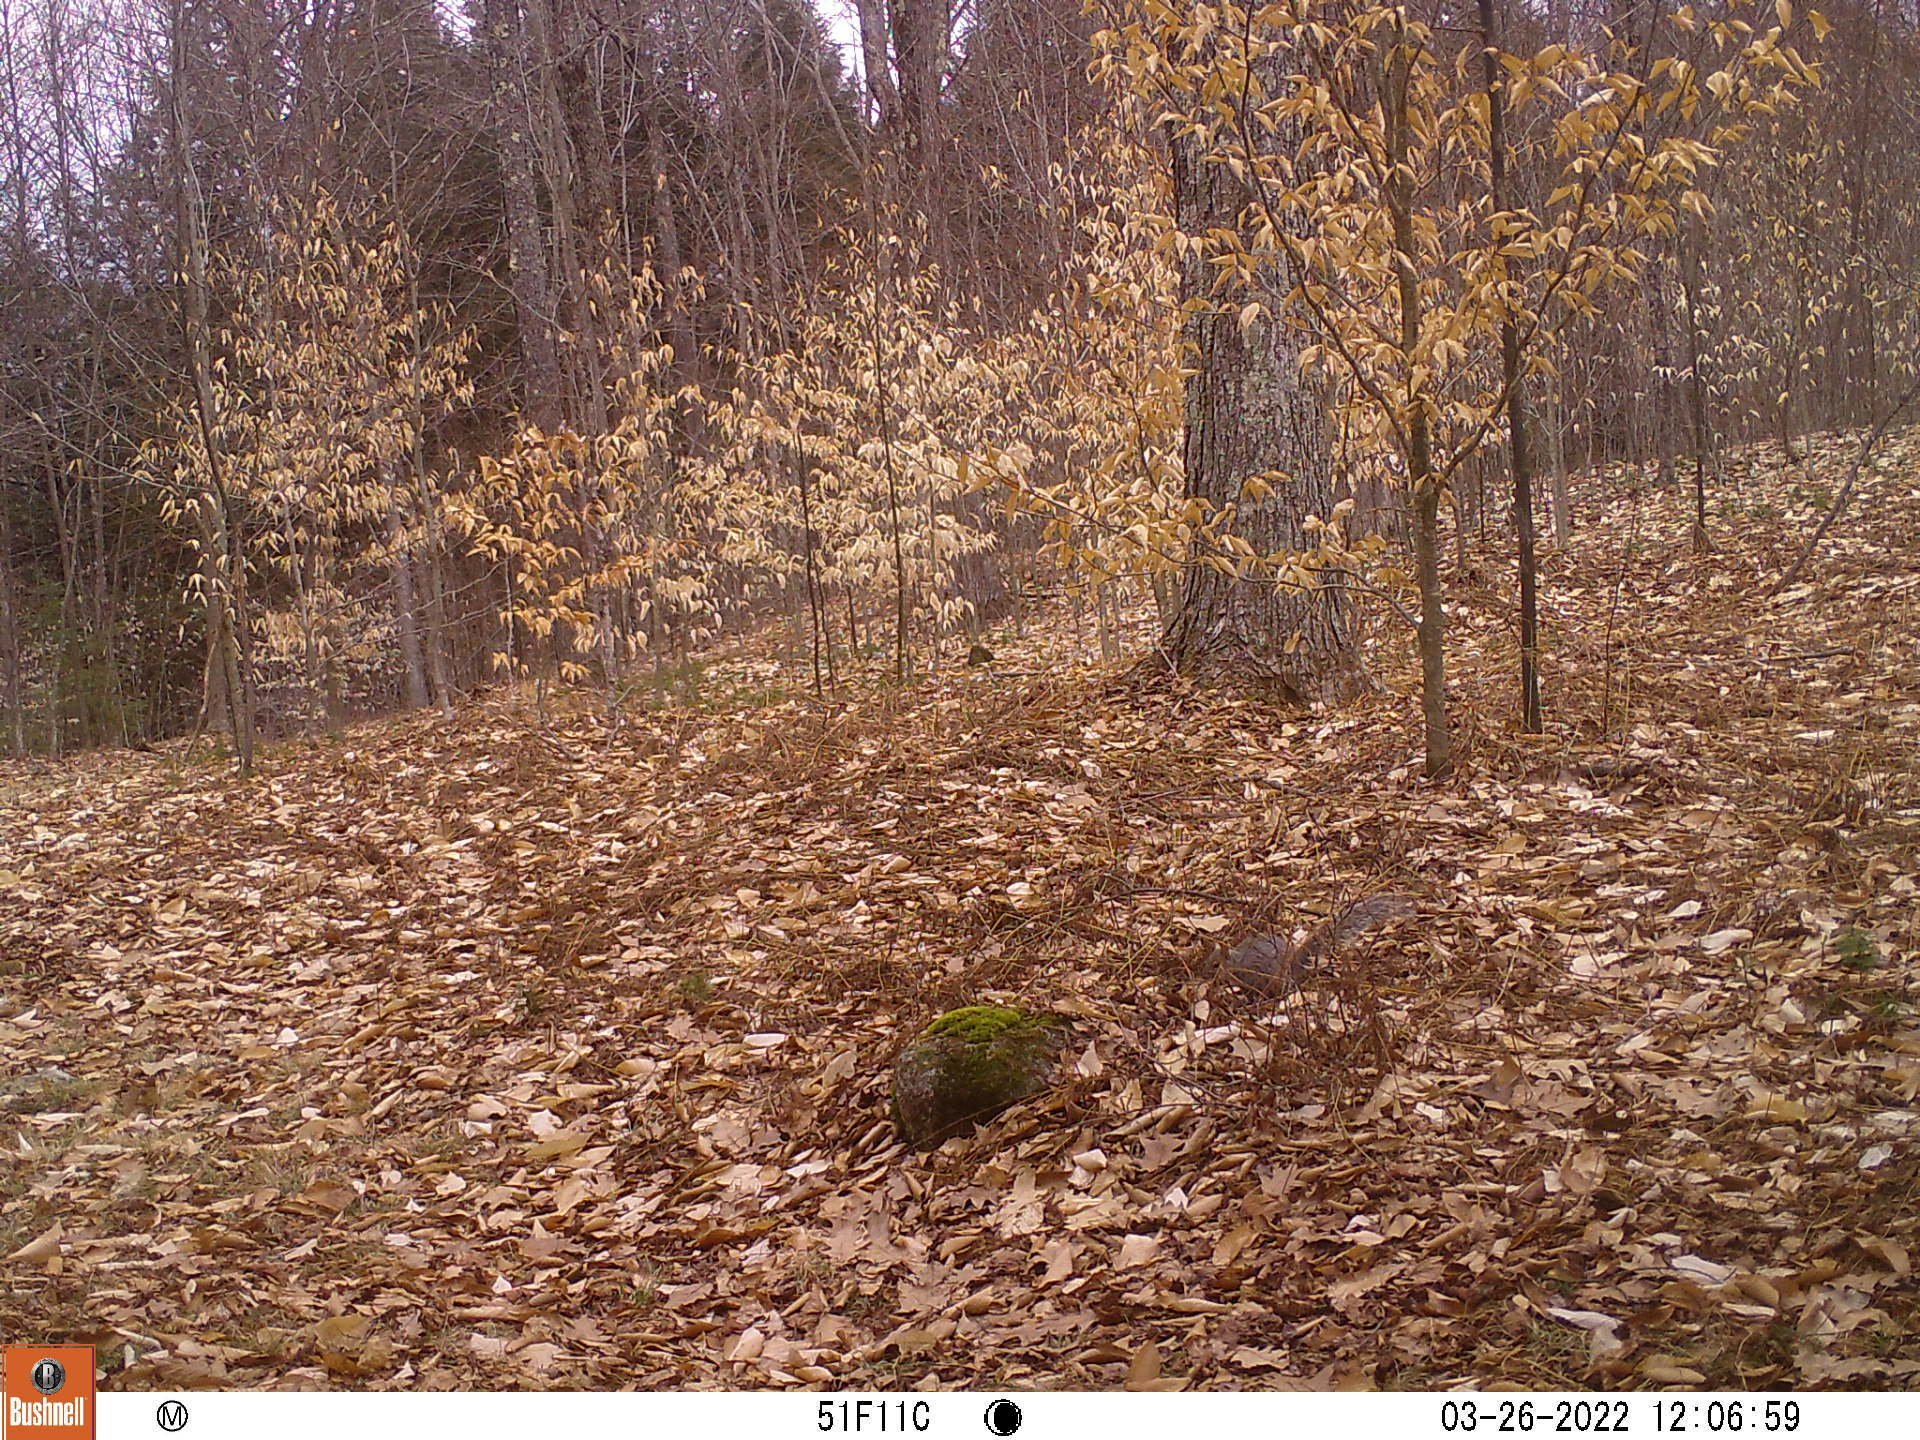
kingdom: Animalia
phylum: Chordata
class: Mammalia
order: Rodentia
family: Sciuridae
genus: Sciurus
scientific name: Sciurus carolinensis
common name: Eastern gray squirrel
